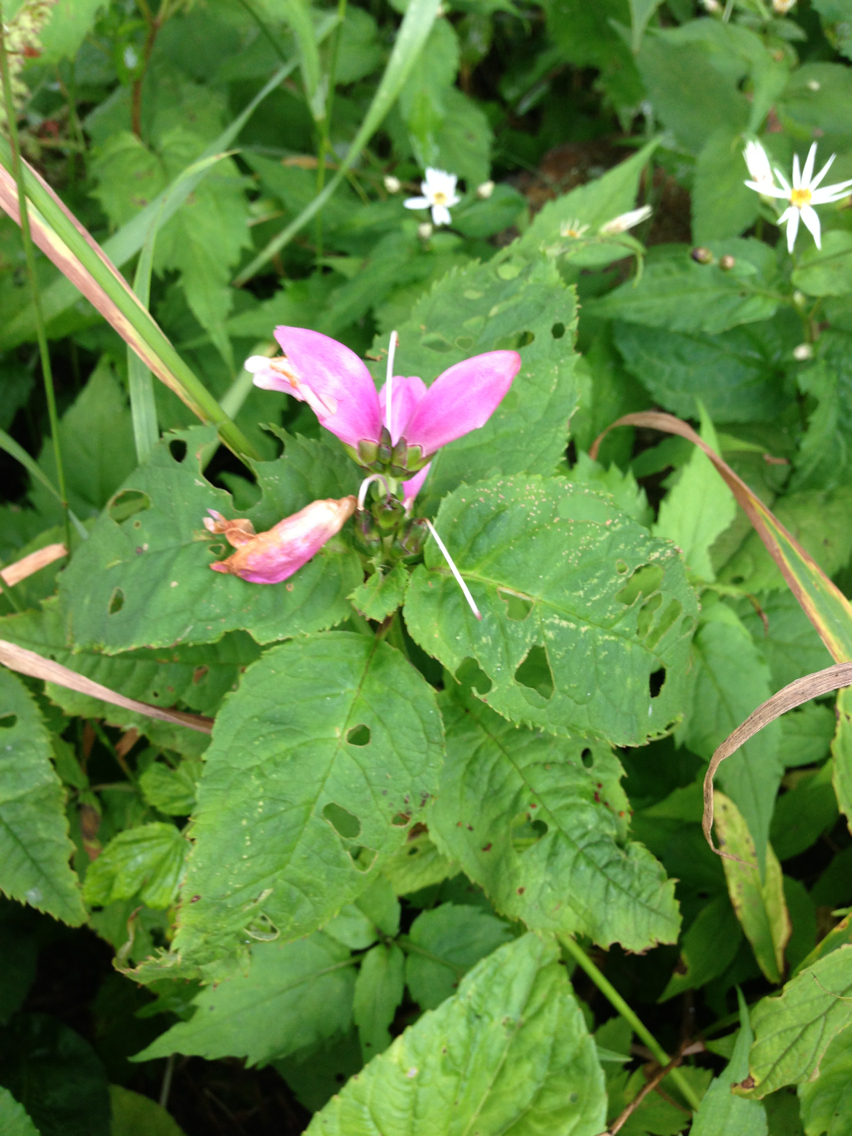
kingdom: Plantae
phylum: Tracheophyta
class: Magnoliopsida
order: Lamiales
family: Plantaginaceae
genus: Chelone
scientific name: Chelone lyonii
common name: Pink turtlehead
